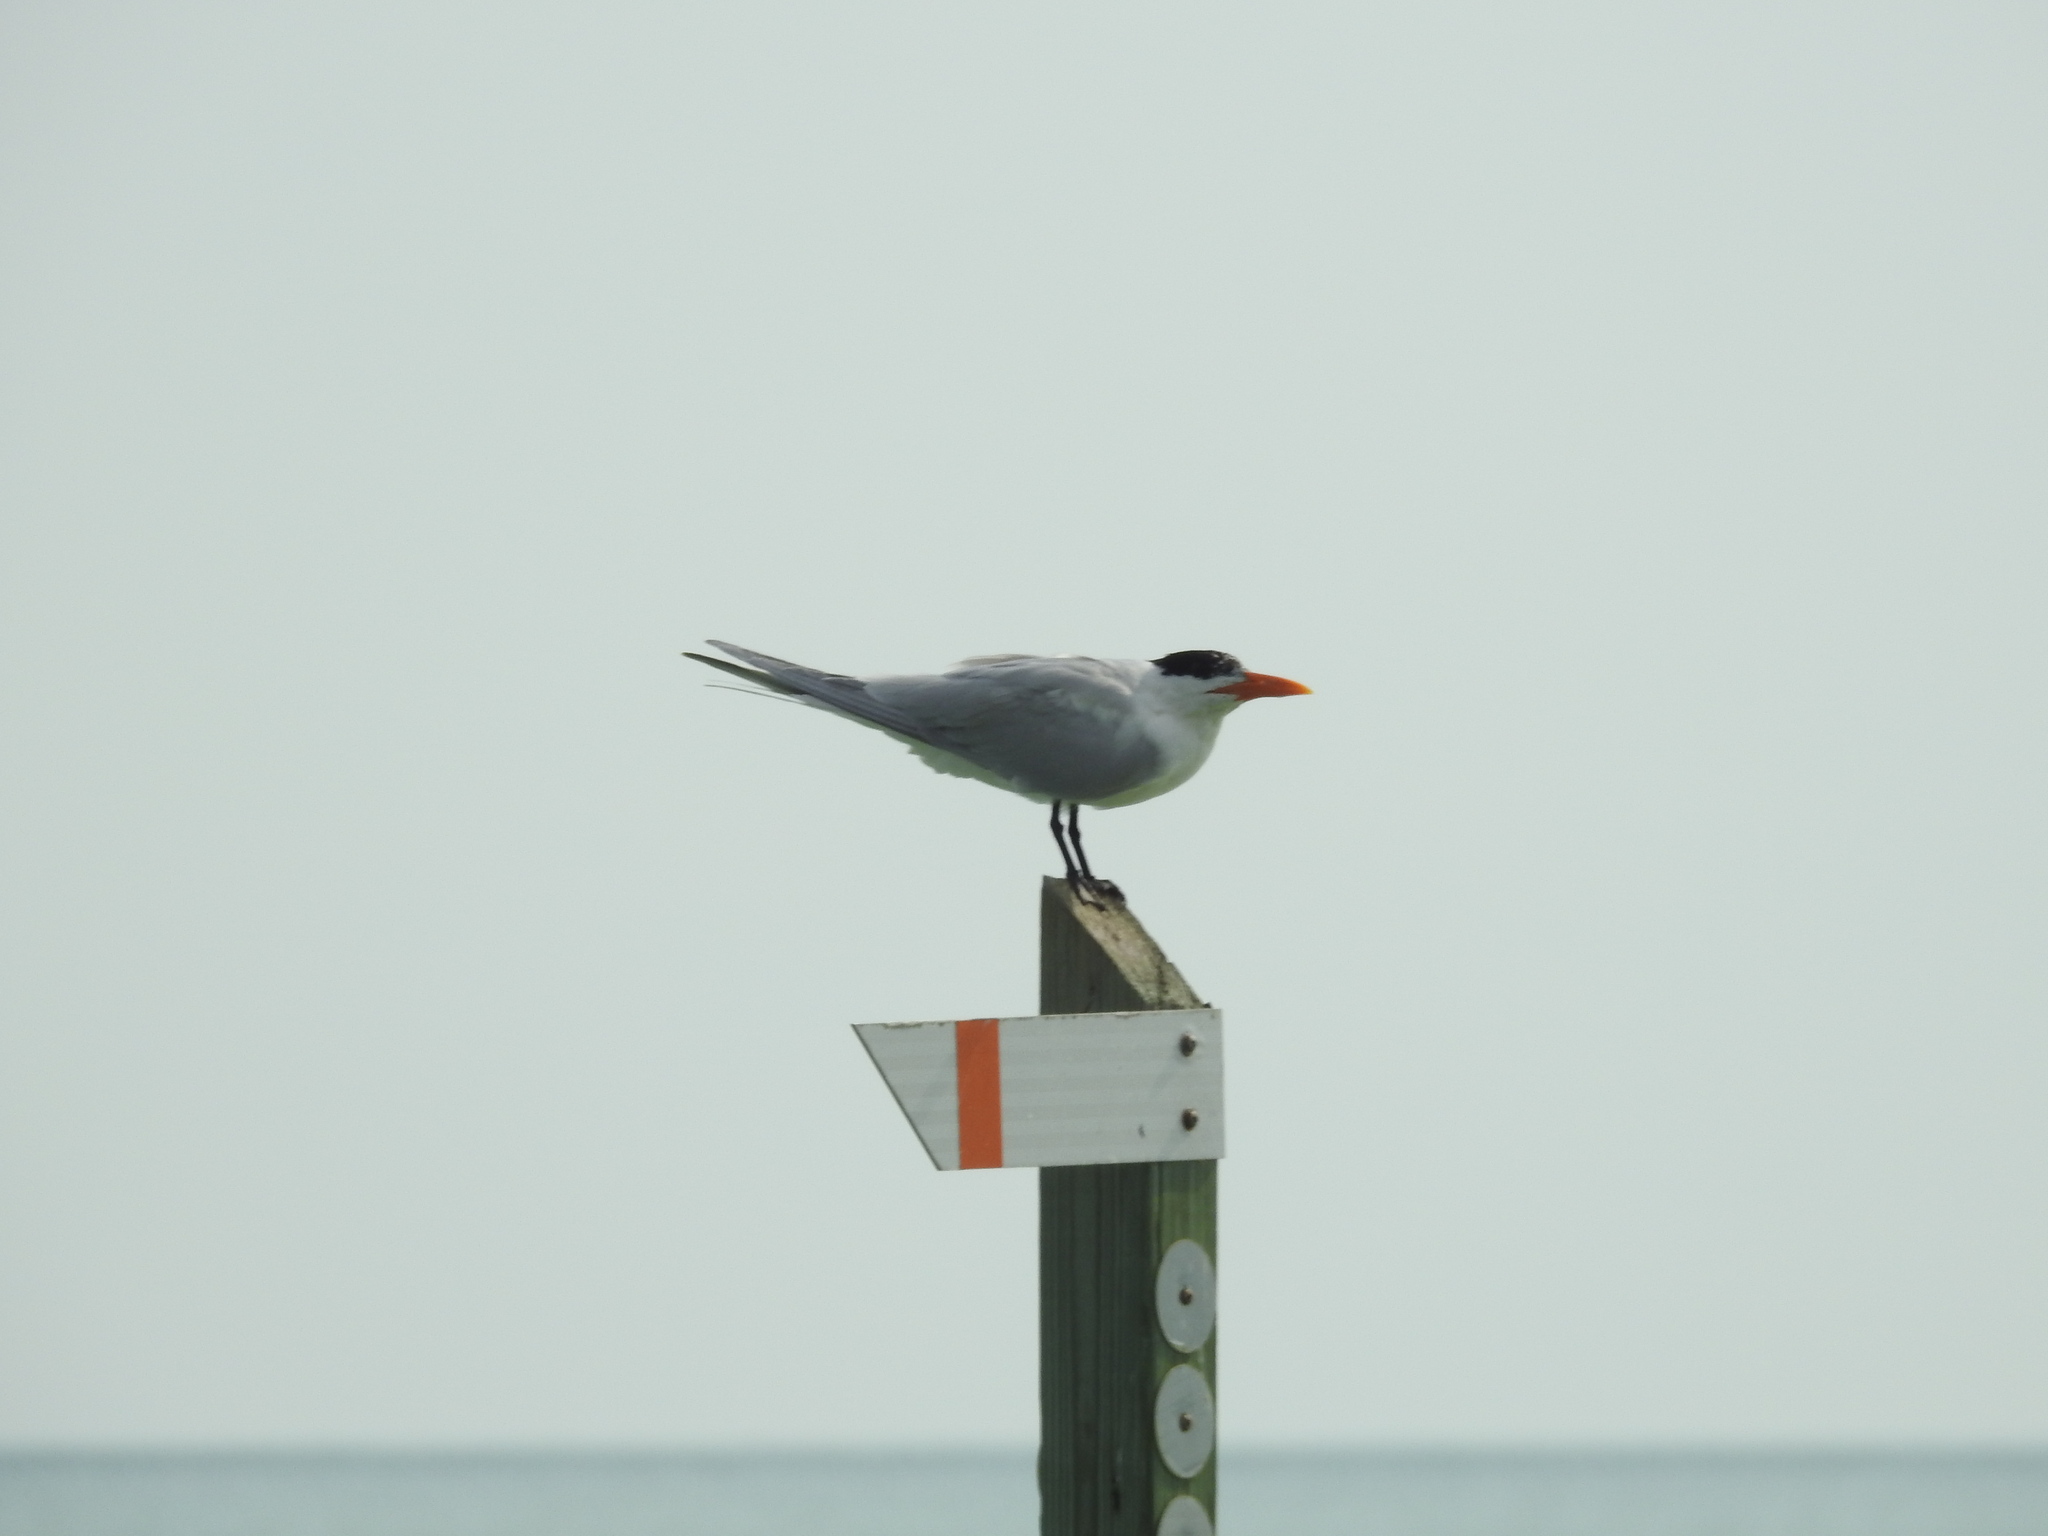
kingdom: Animalia
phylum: Chordata
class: Aves
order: Charadriiformes
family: Laridae
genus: Thalasseus
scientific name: Thalasseus maximus
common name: Royal tern
